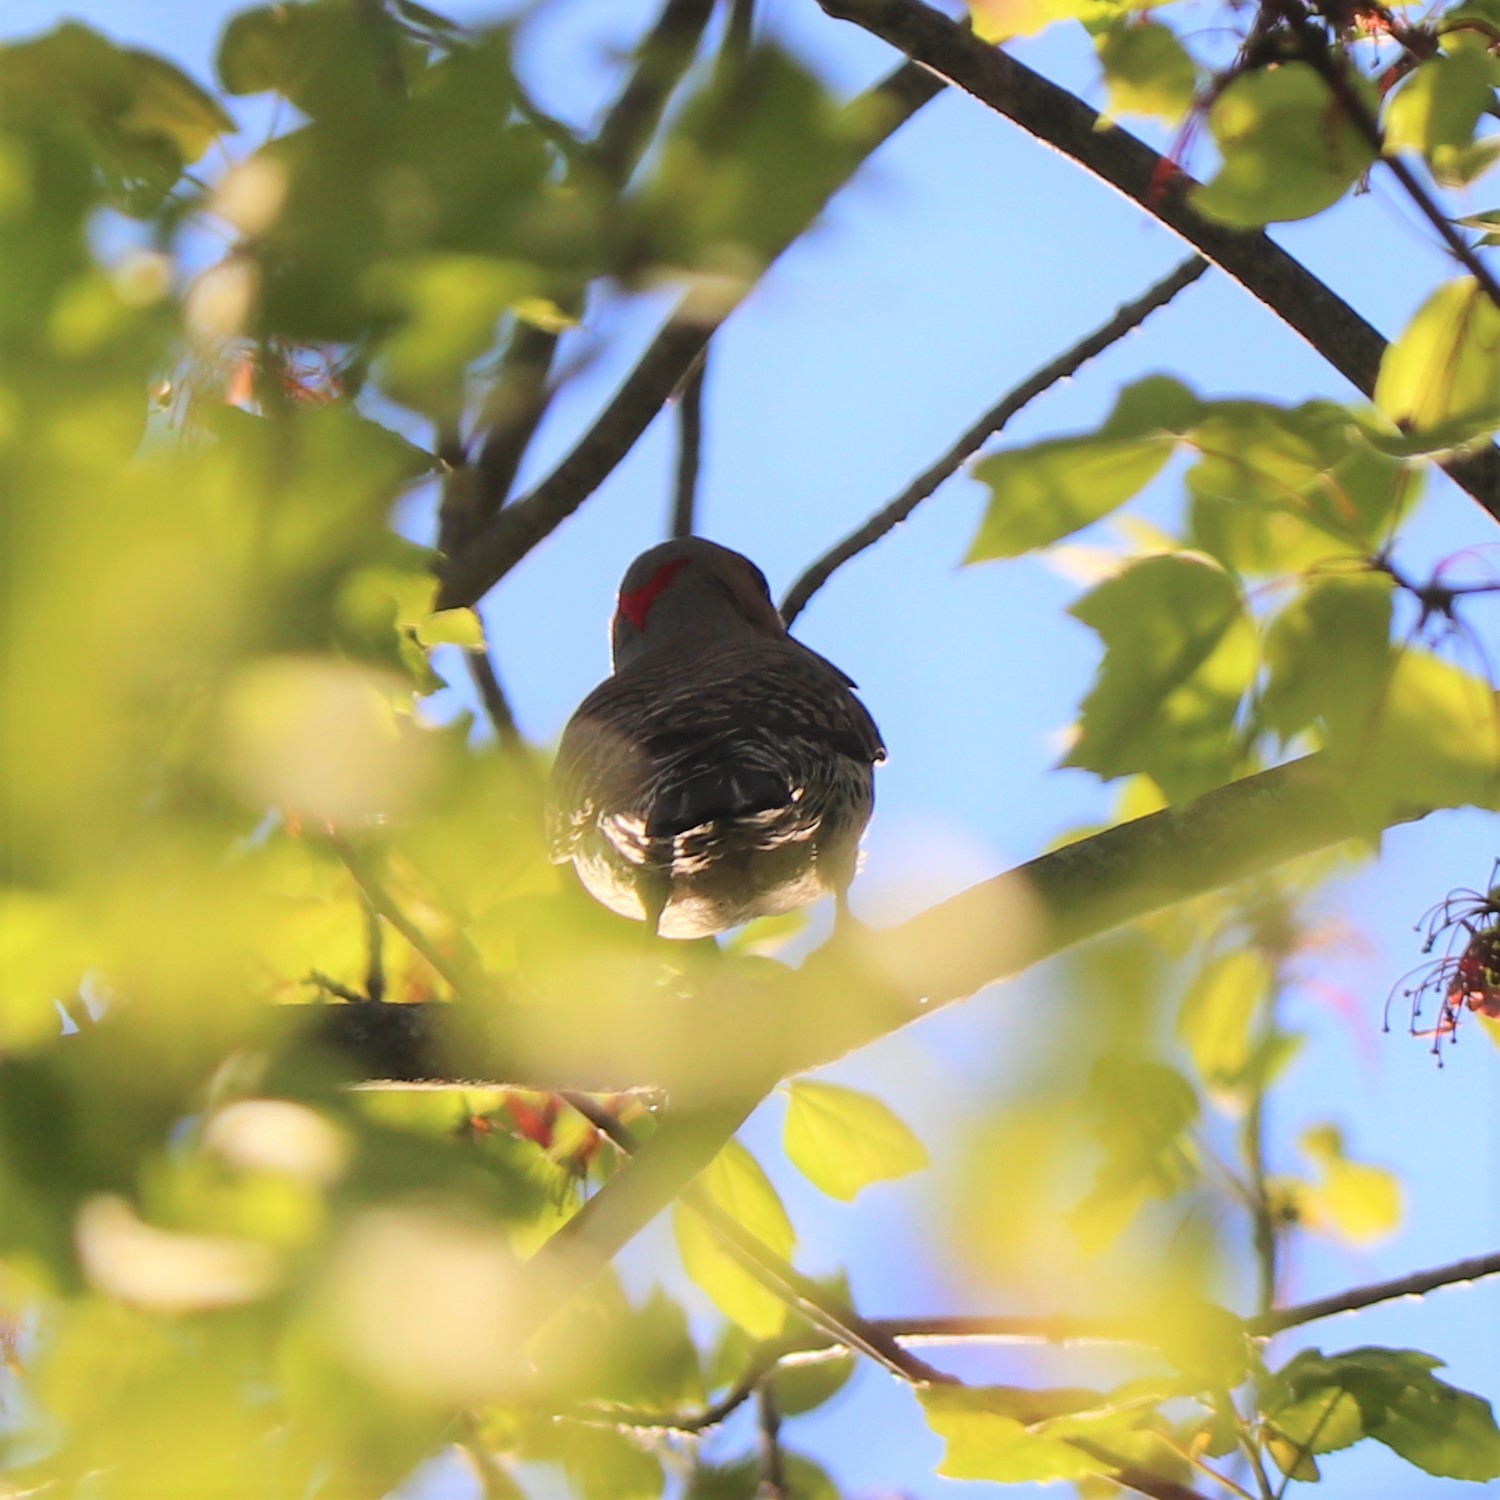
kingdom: Animalia
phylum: Chordata
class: Aves
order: Piciformes
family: Picidae
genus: Colaptes
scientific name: Colaptes auratus
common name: Northern flicker
